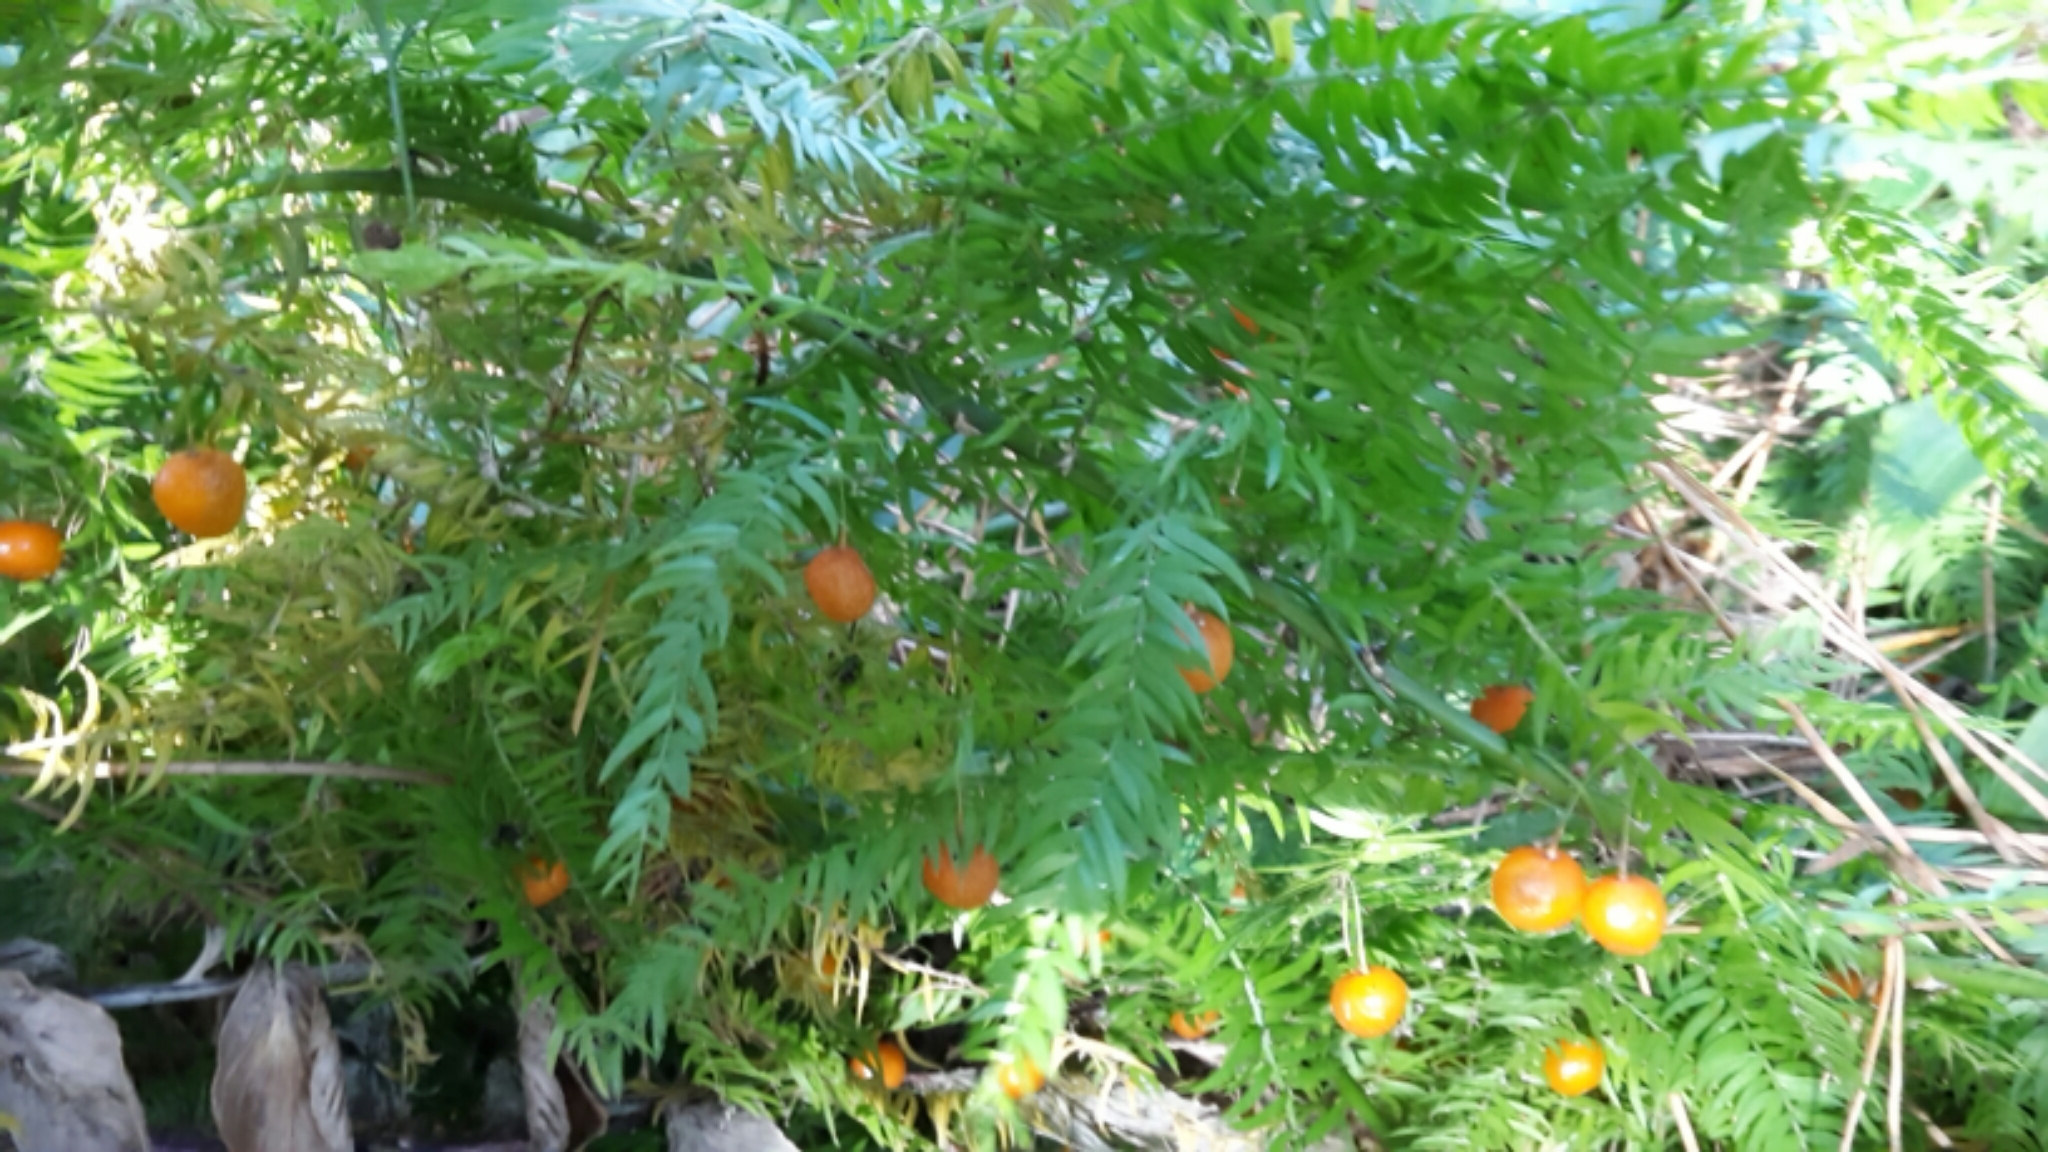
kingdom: Plantae
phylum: Tracheophyta
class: Liliopsida
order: Asparagales
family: Asparagaceae
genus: Asparagus
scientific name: Asparagus scandens
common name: Asparagus-fern
